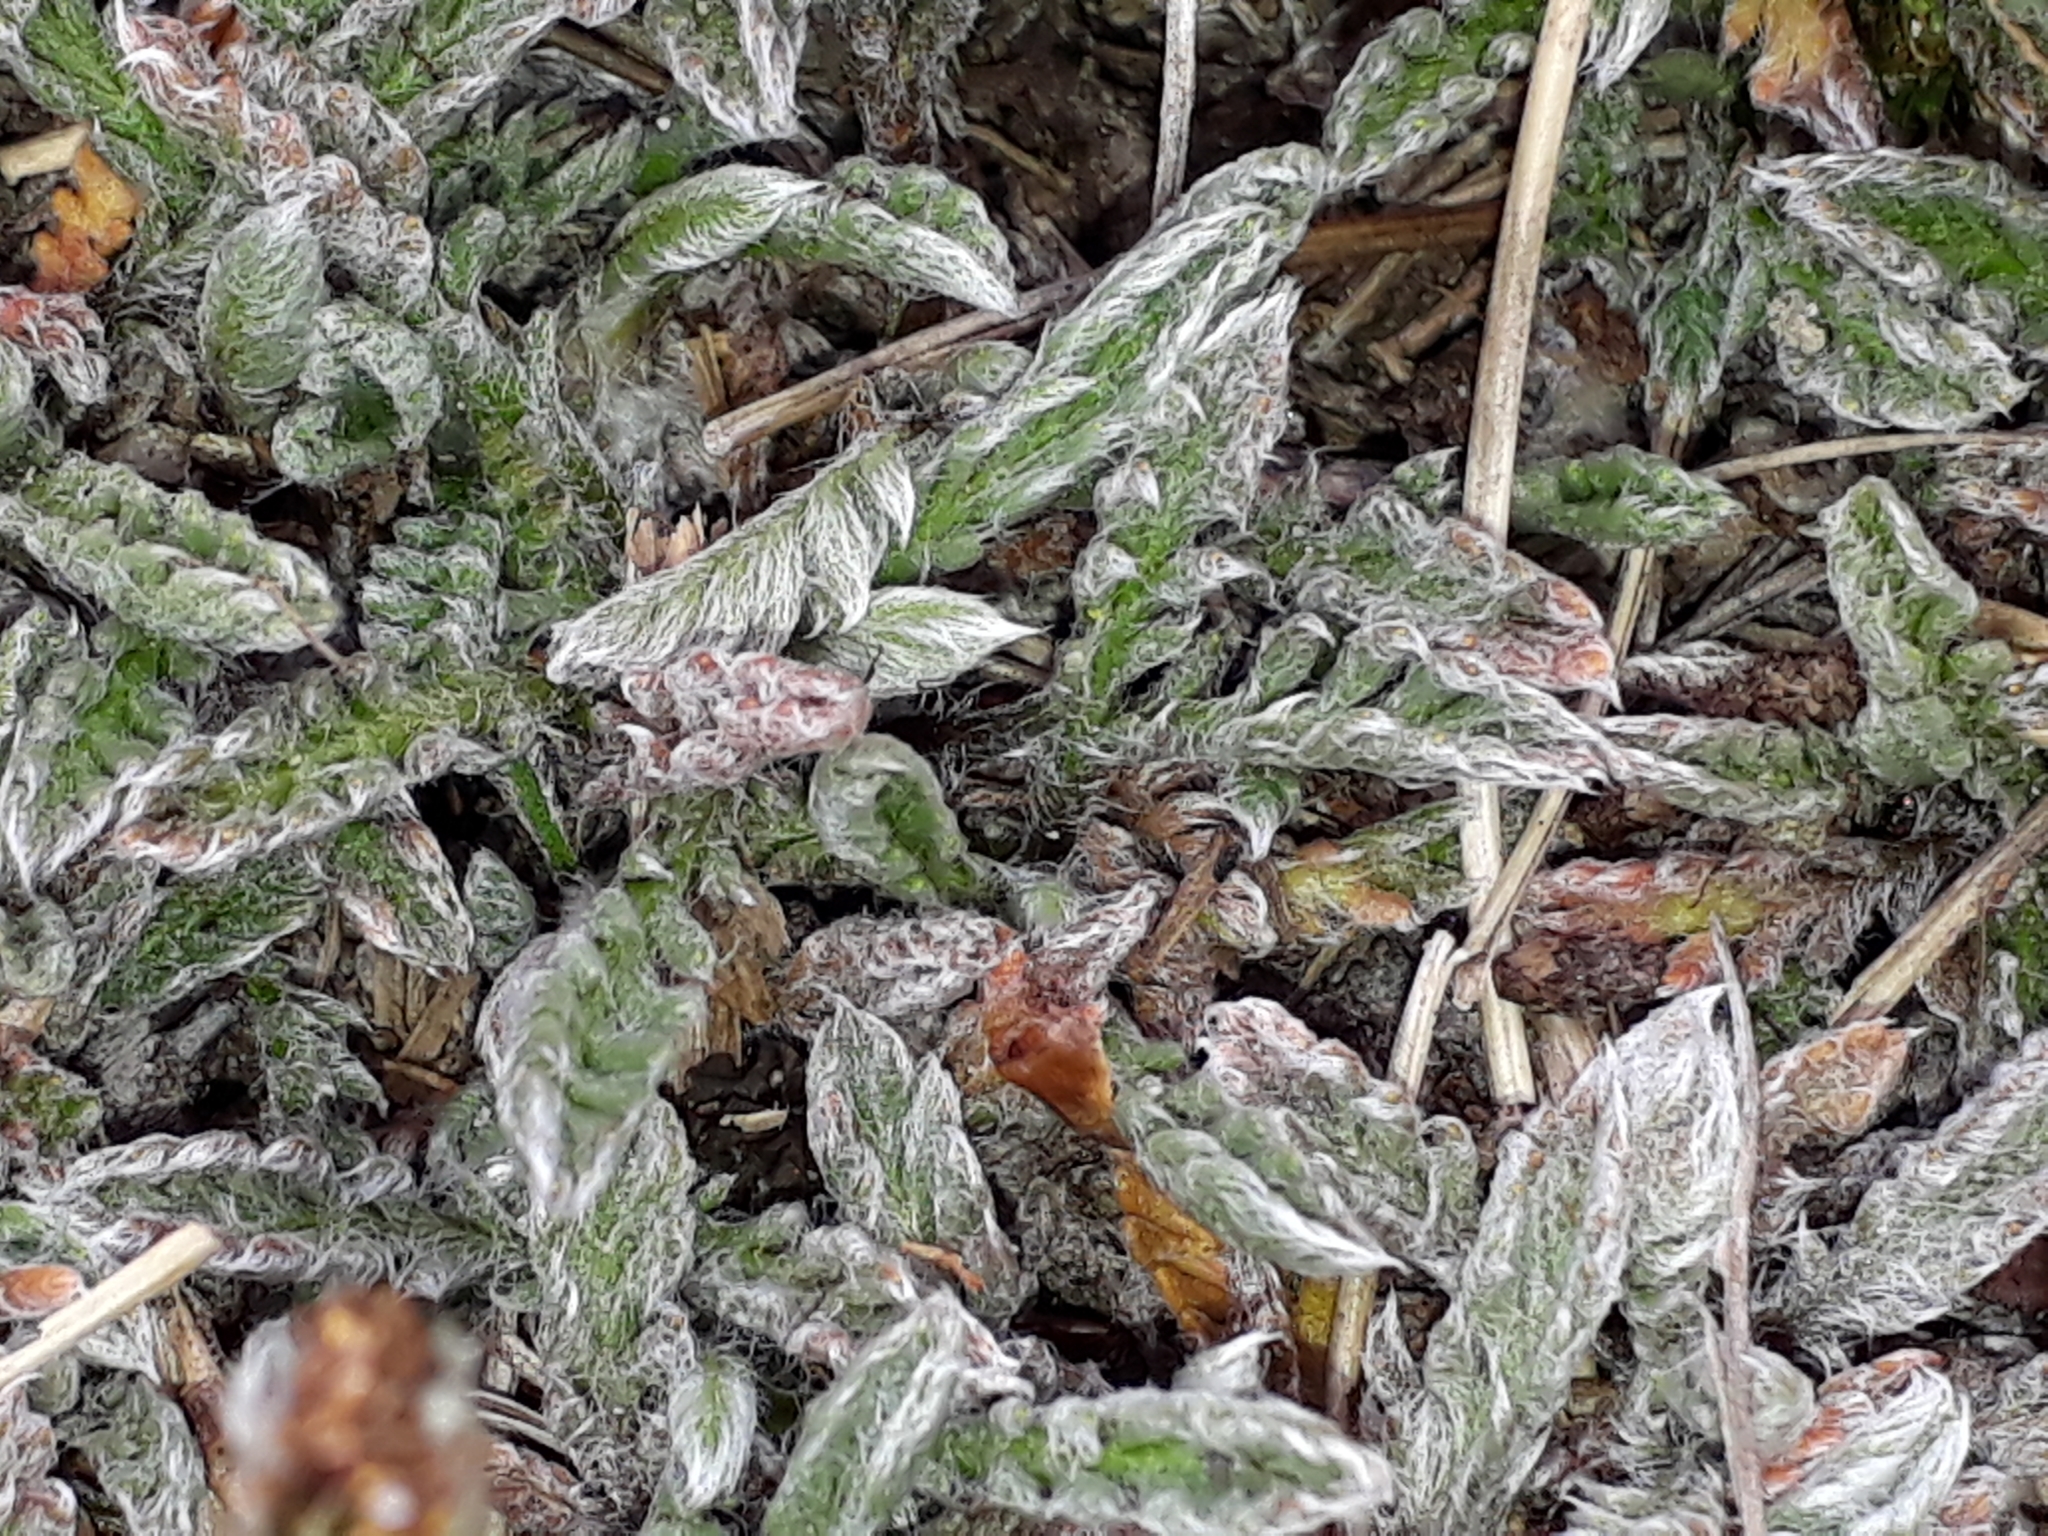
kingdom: Plantae
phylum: Tracheophyta
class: Magnoliopsida
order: Asterales
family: Asteraceae
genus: Leptinella
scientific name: Leptinella pectinata
